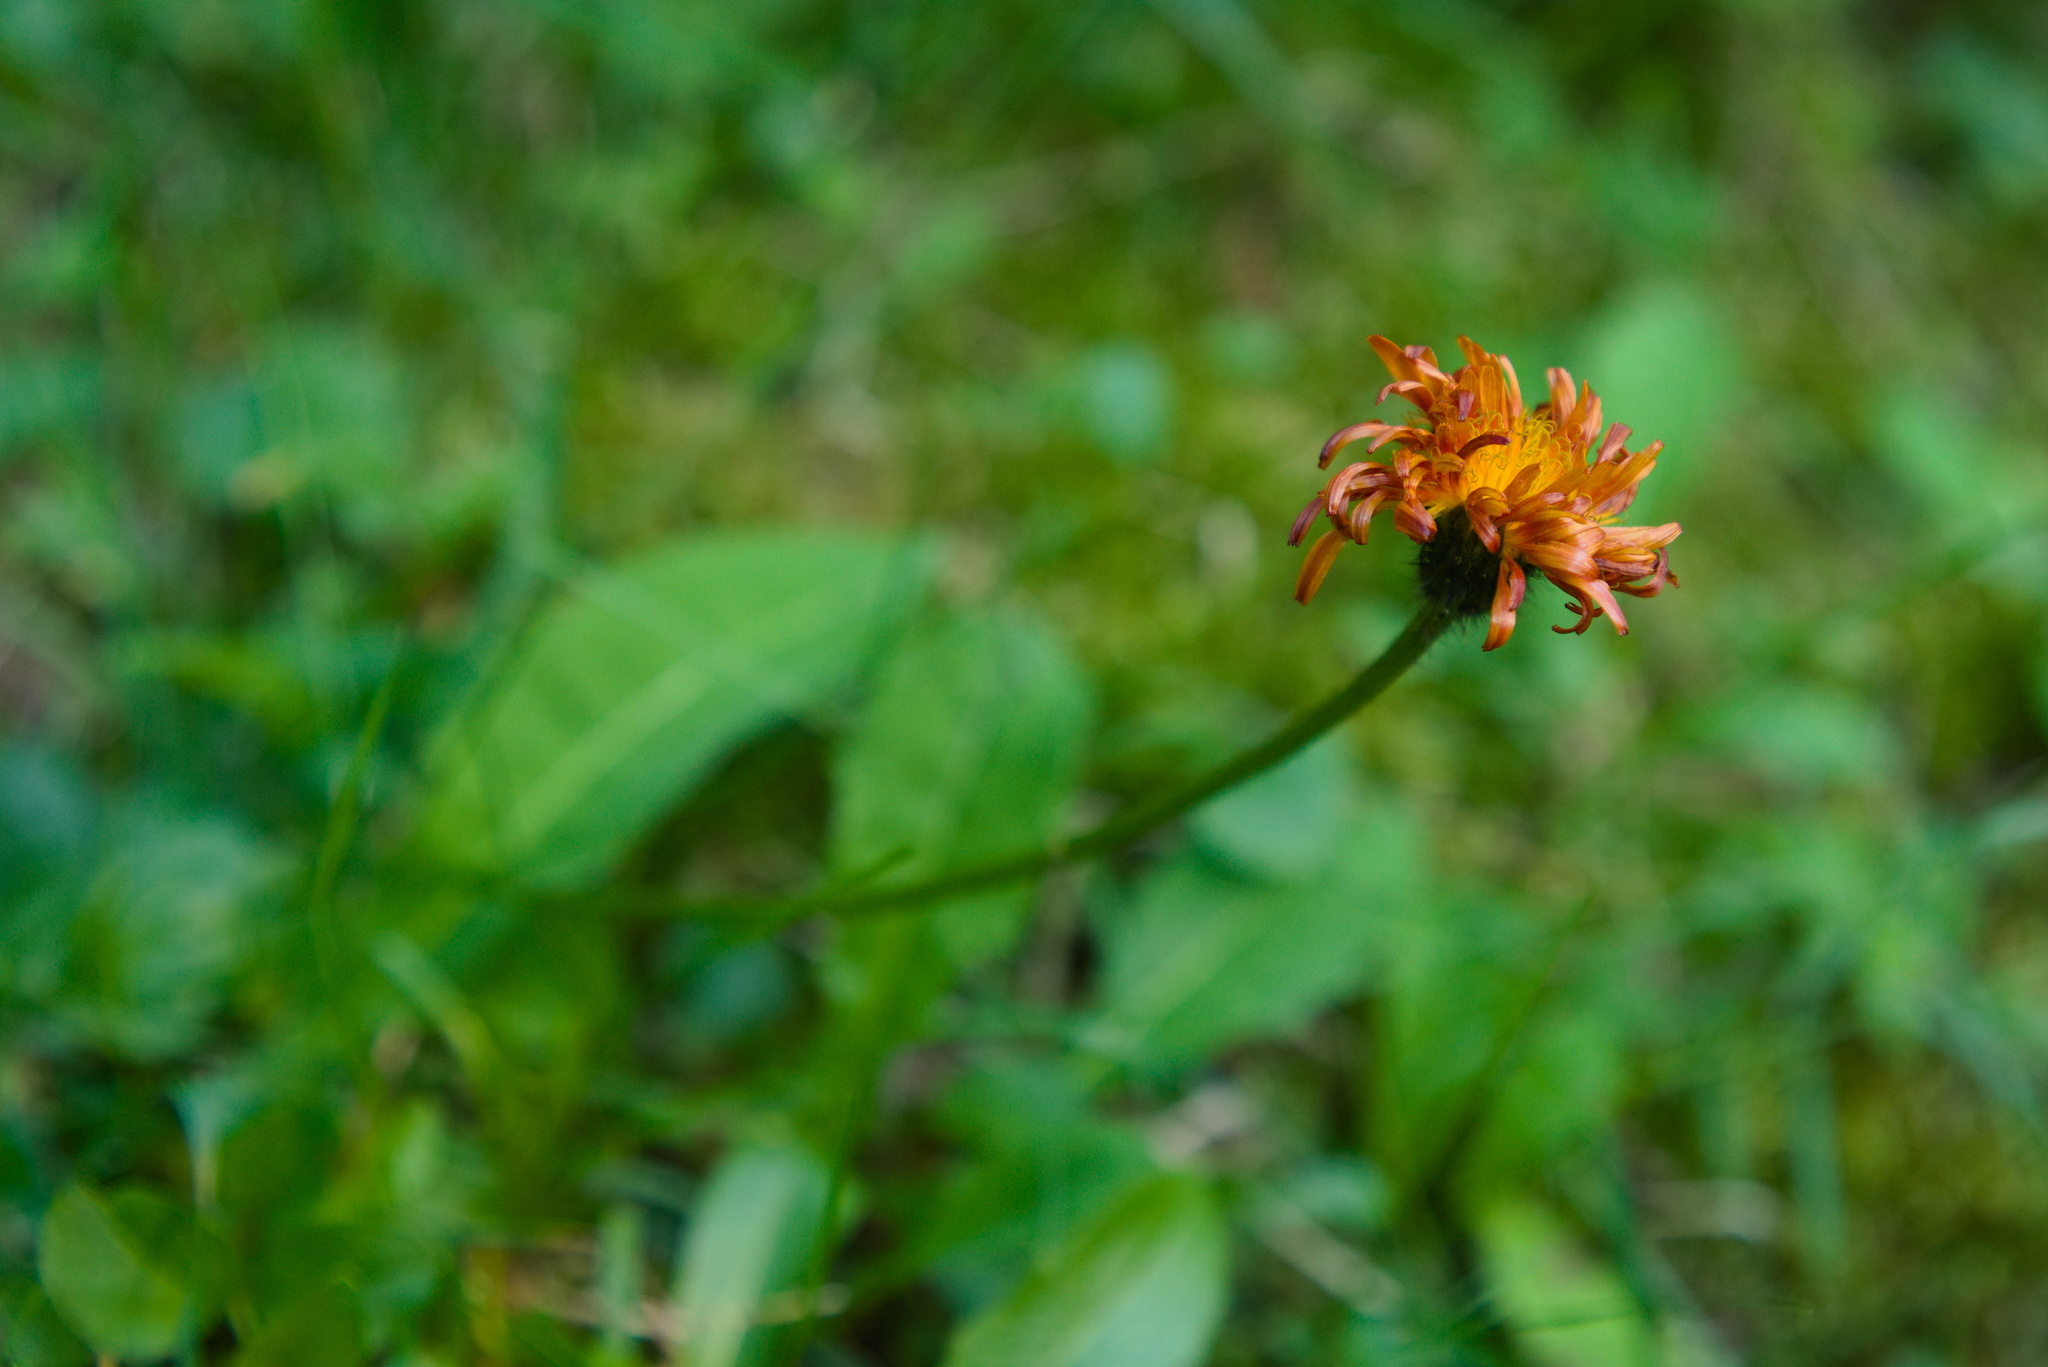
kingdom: Plantae
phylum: Tracheophyta
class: Magnoliopsida
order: Asterales
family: Asteraceae
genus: Crepis
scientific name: Crepis aurea
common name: Golden hawk's-beard
